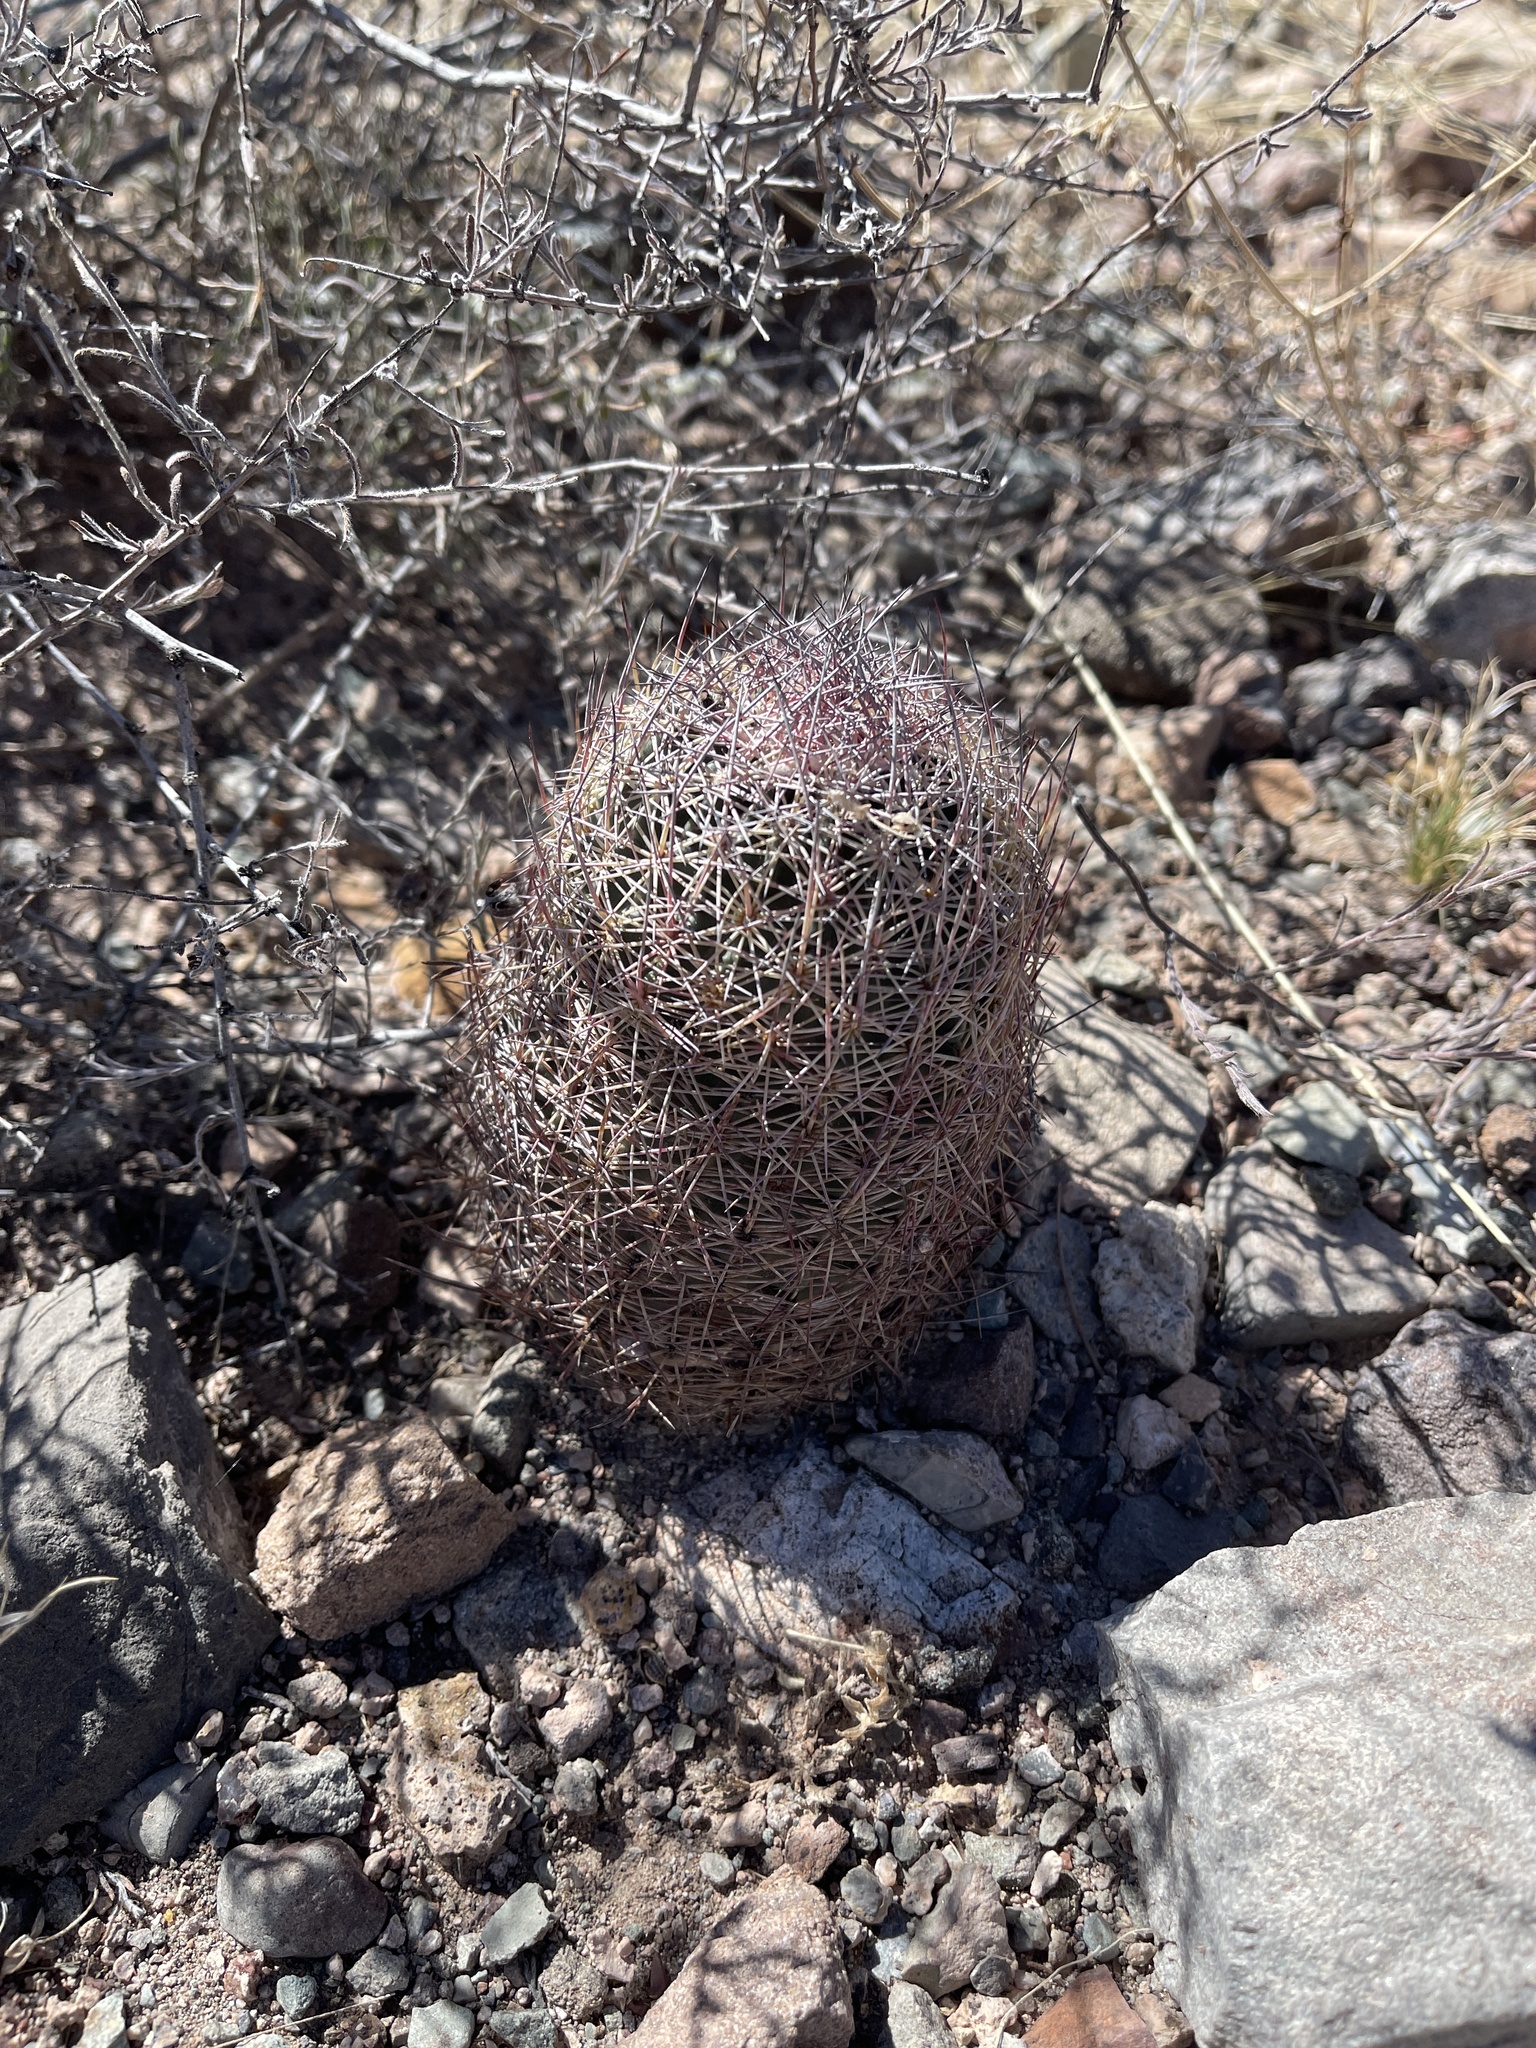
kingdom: Plantae
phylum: Tracheophyta
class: Magnoliopsida
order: Caryophyllales
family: Cactaceae
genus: Sclerocactus
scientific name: Sclerocactus johnsonii
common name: Eight-spine fishhook cactus
